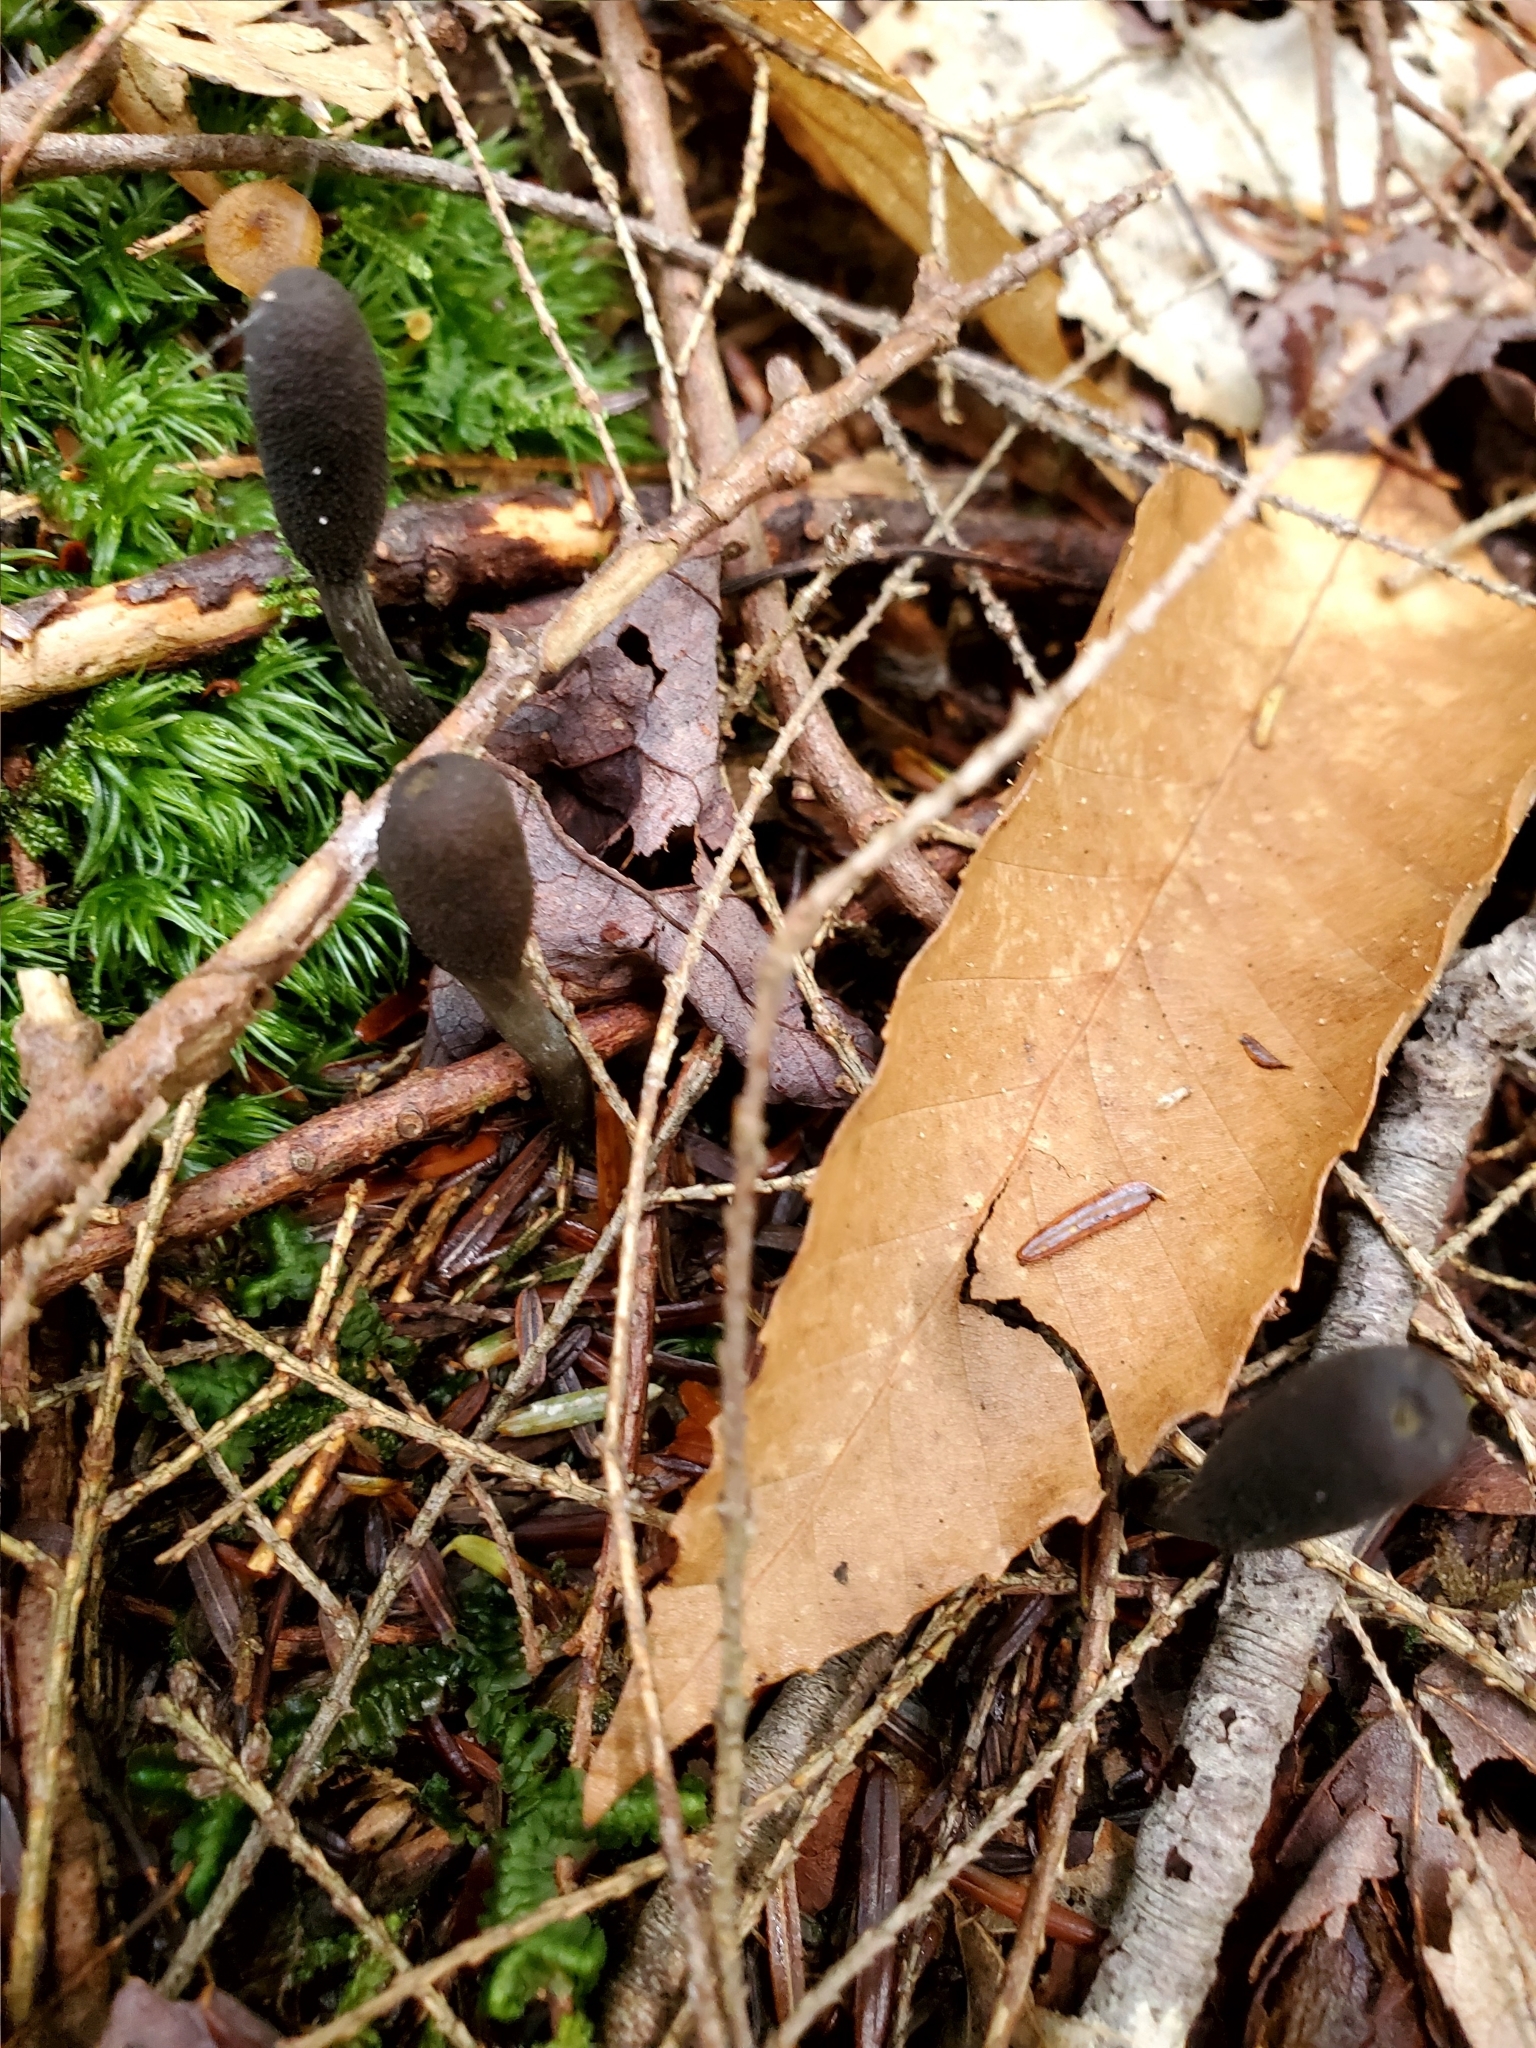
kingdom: Fungi
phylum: Ascomycota
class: Sordariomycetes
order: Hypocreales
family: Ophiocordycipitaceae
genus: Tolypocladium
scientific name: Tolypocladium ophioglossoides
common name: Snaketongue truffleclub
